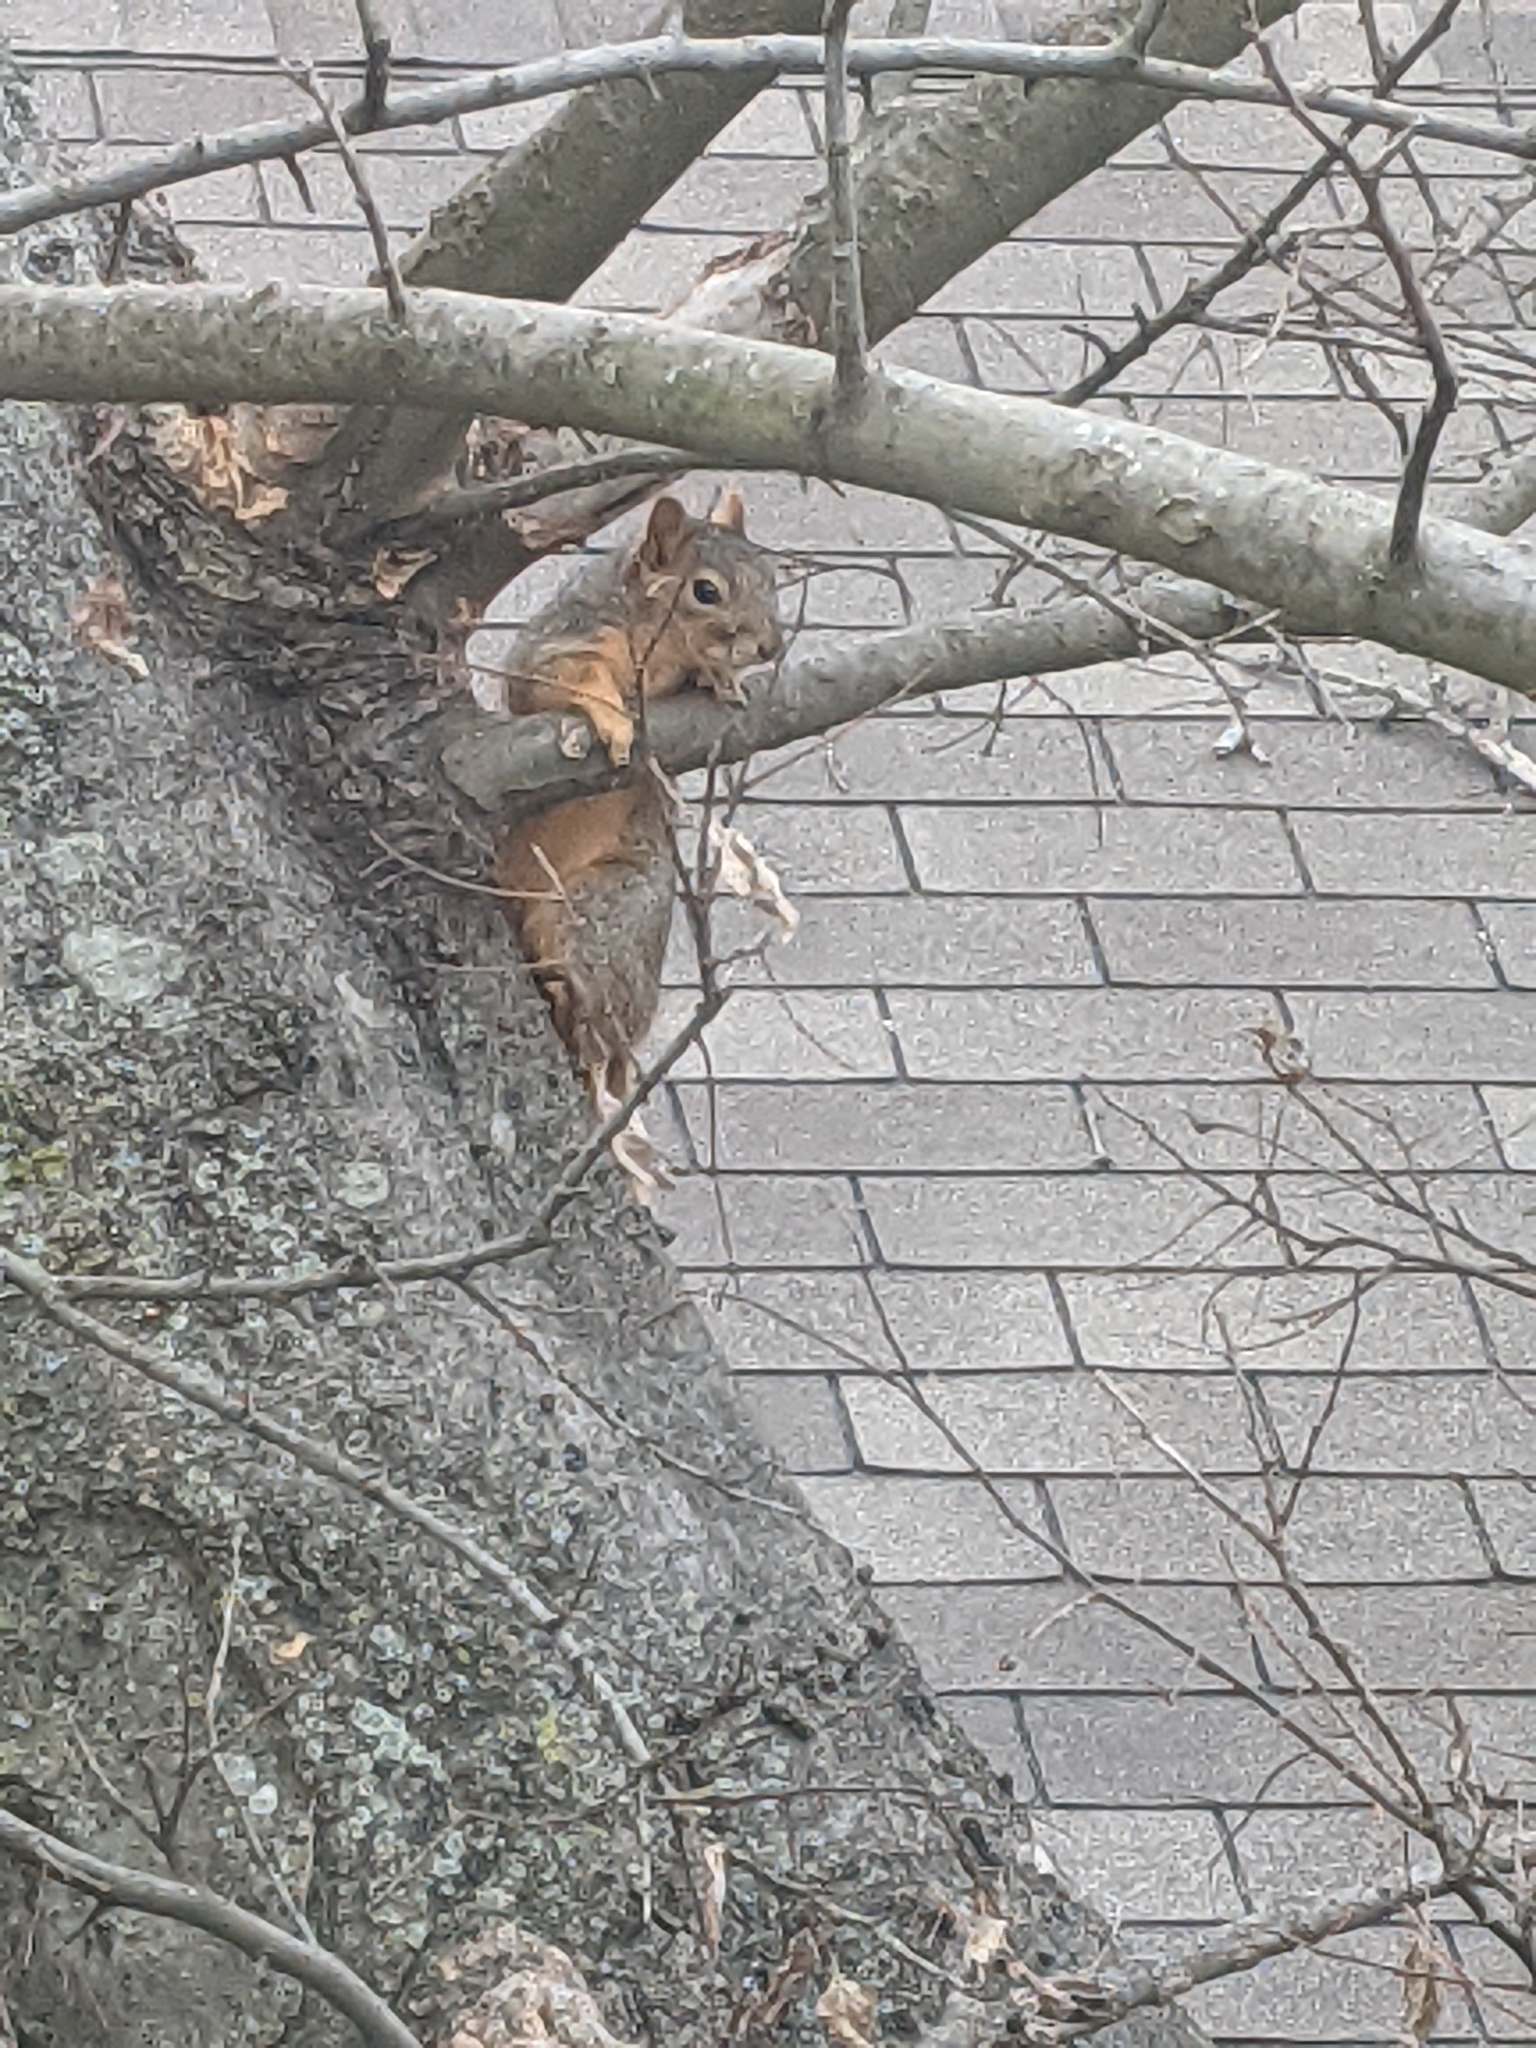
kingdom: Animalia
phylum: Chordata
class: Mammalia
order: Rodentia
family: Sciuridae
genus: Sciurus
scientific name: Sciurus niger
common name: Fox squirrel
